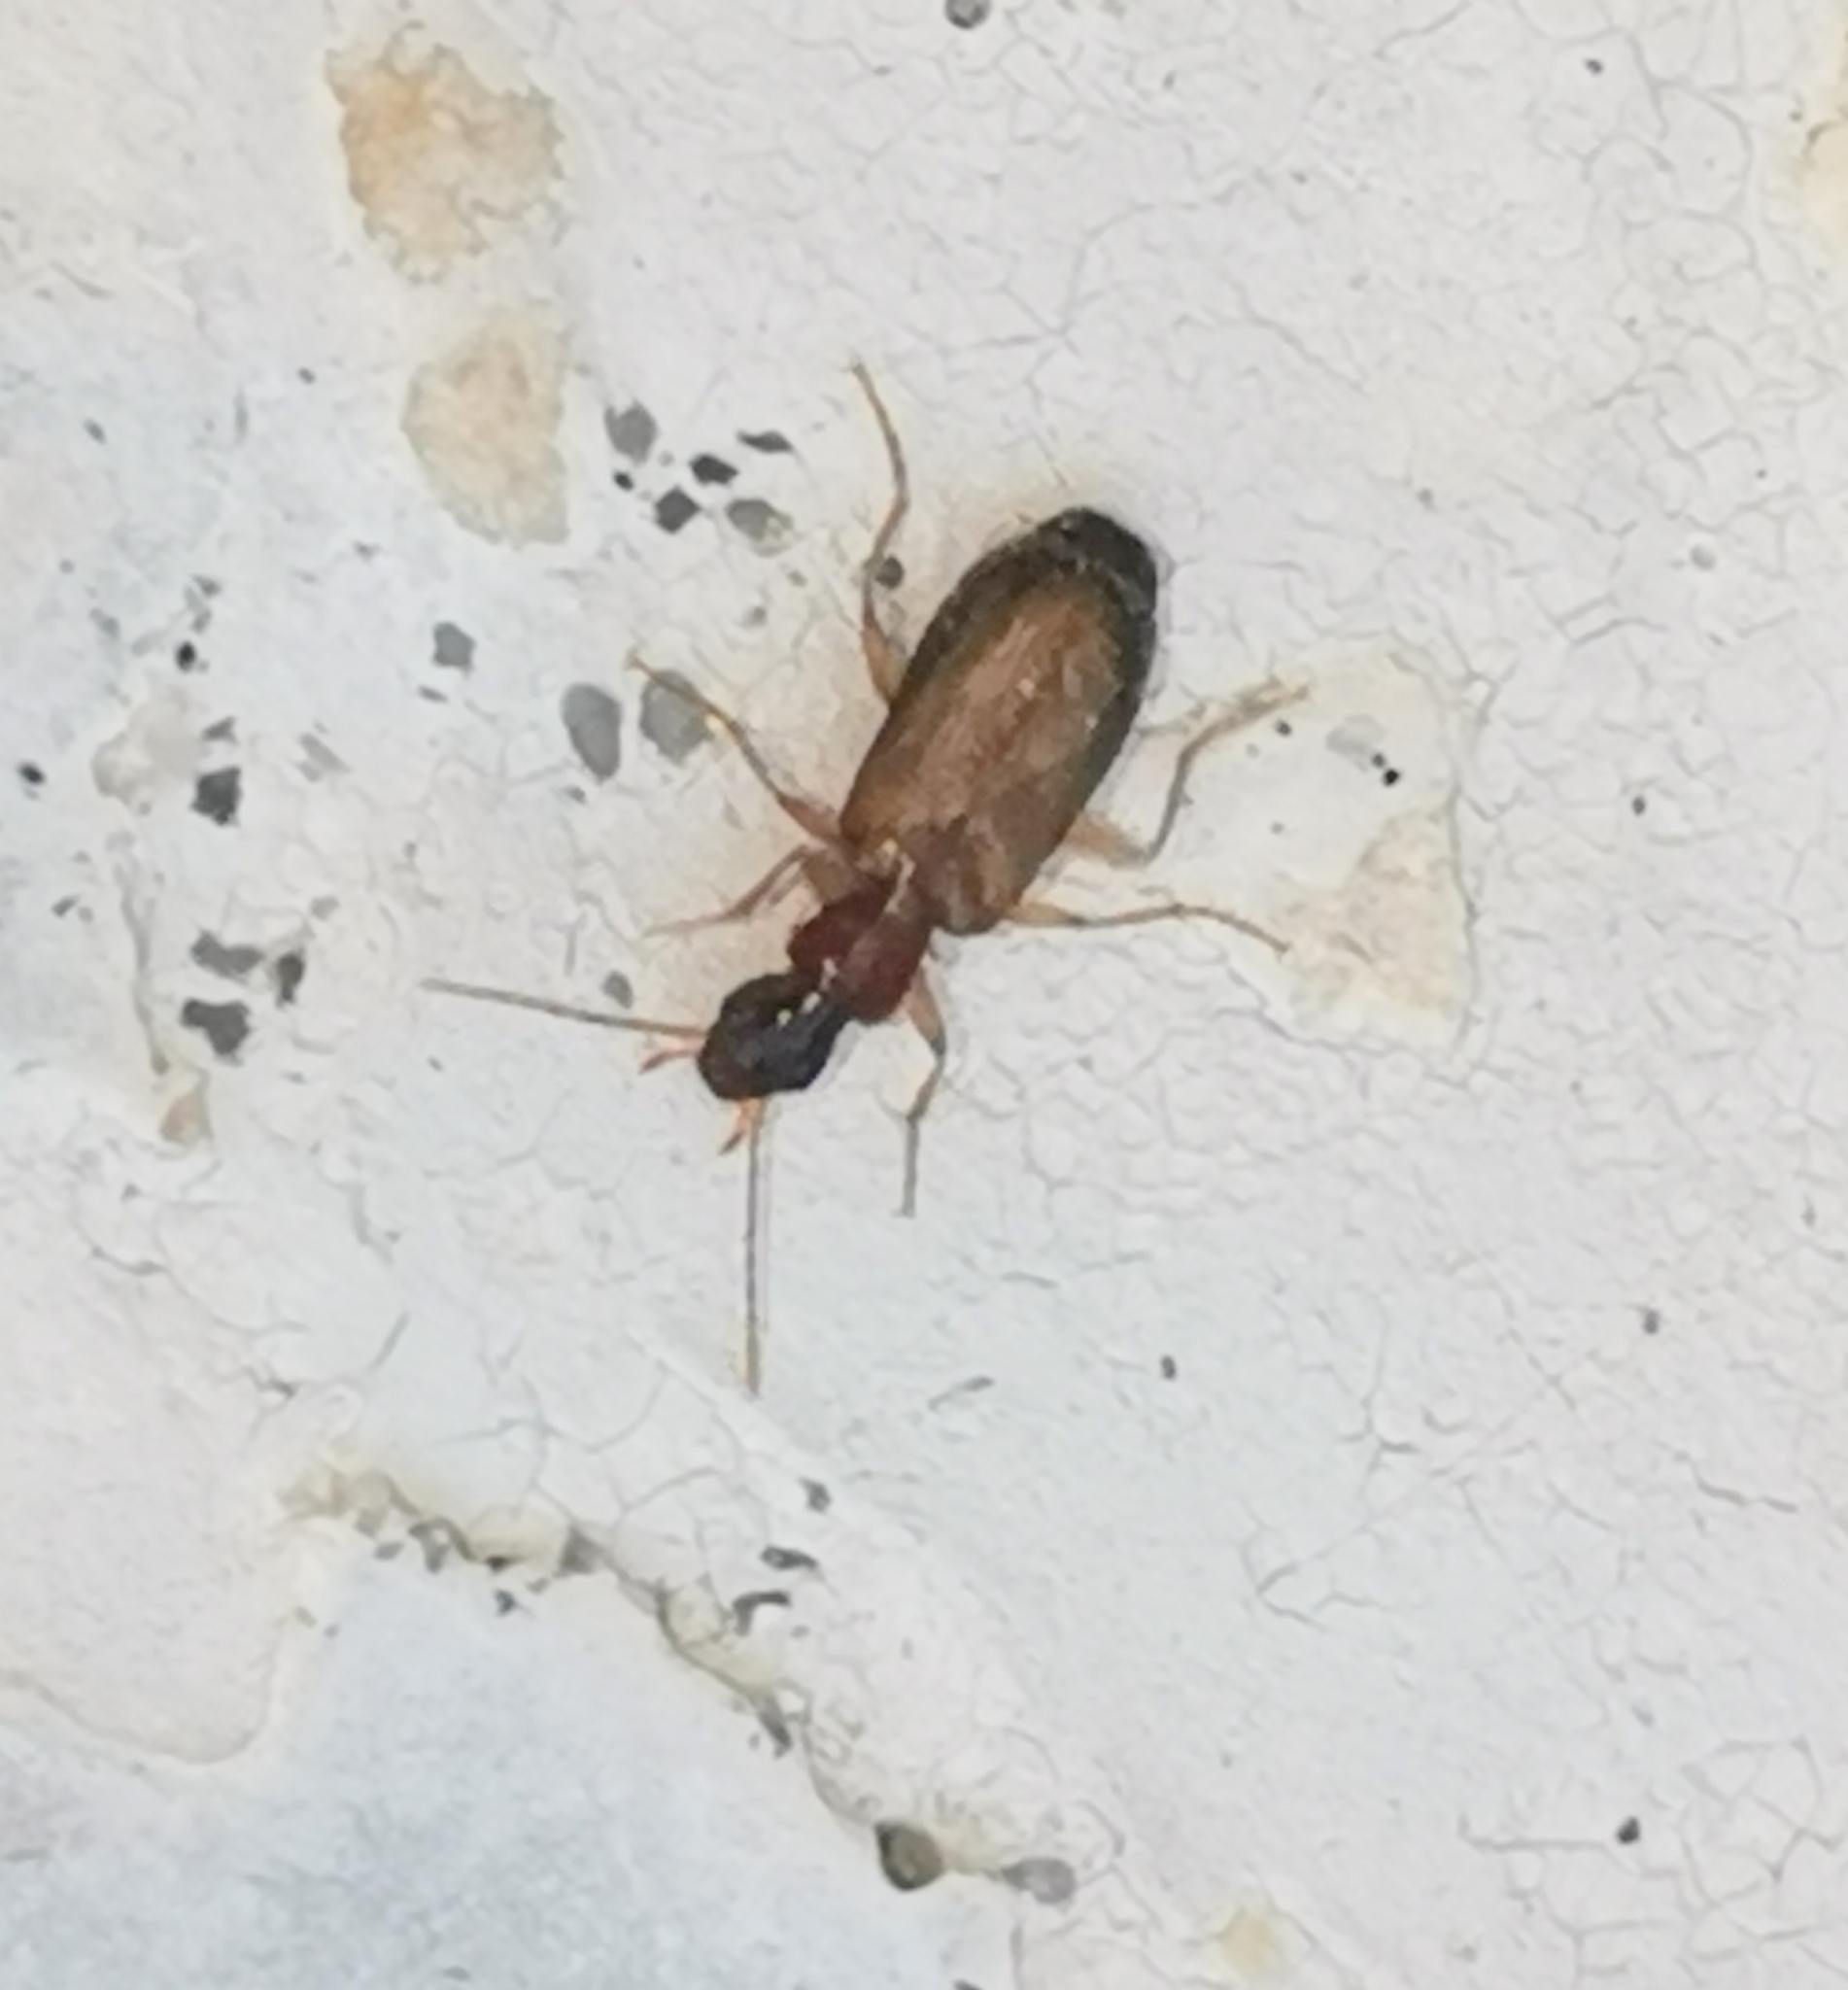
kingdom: Animalia
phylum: Arthropoda
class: Insecta
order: Coleoptera
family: Carabidae
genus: Dromius
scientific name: Dromius schneideri
